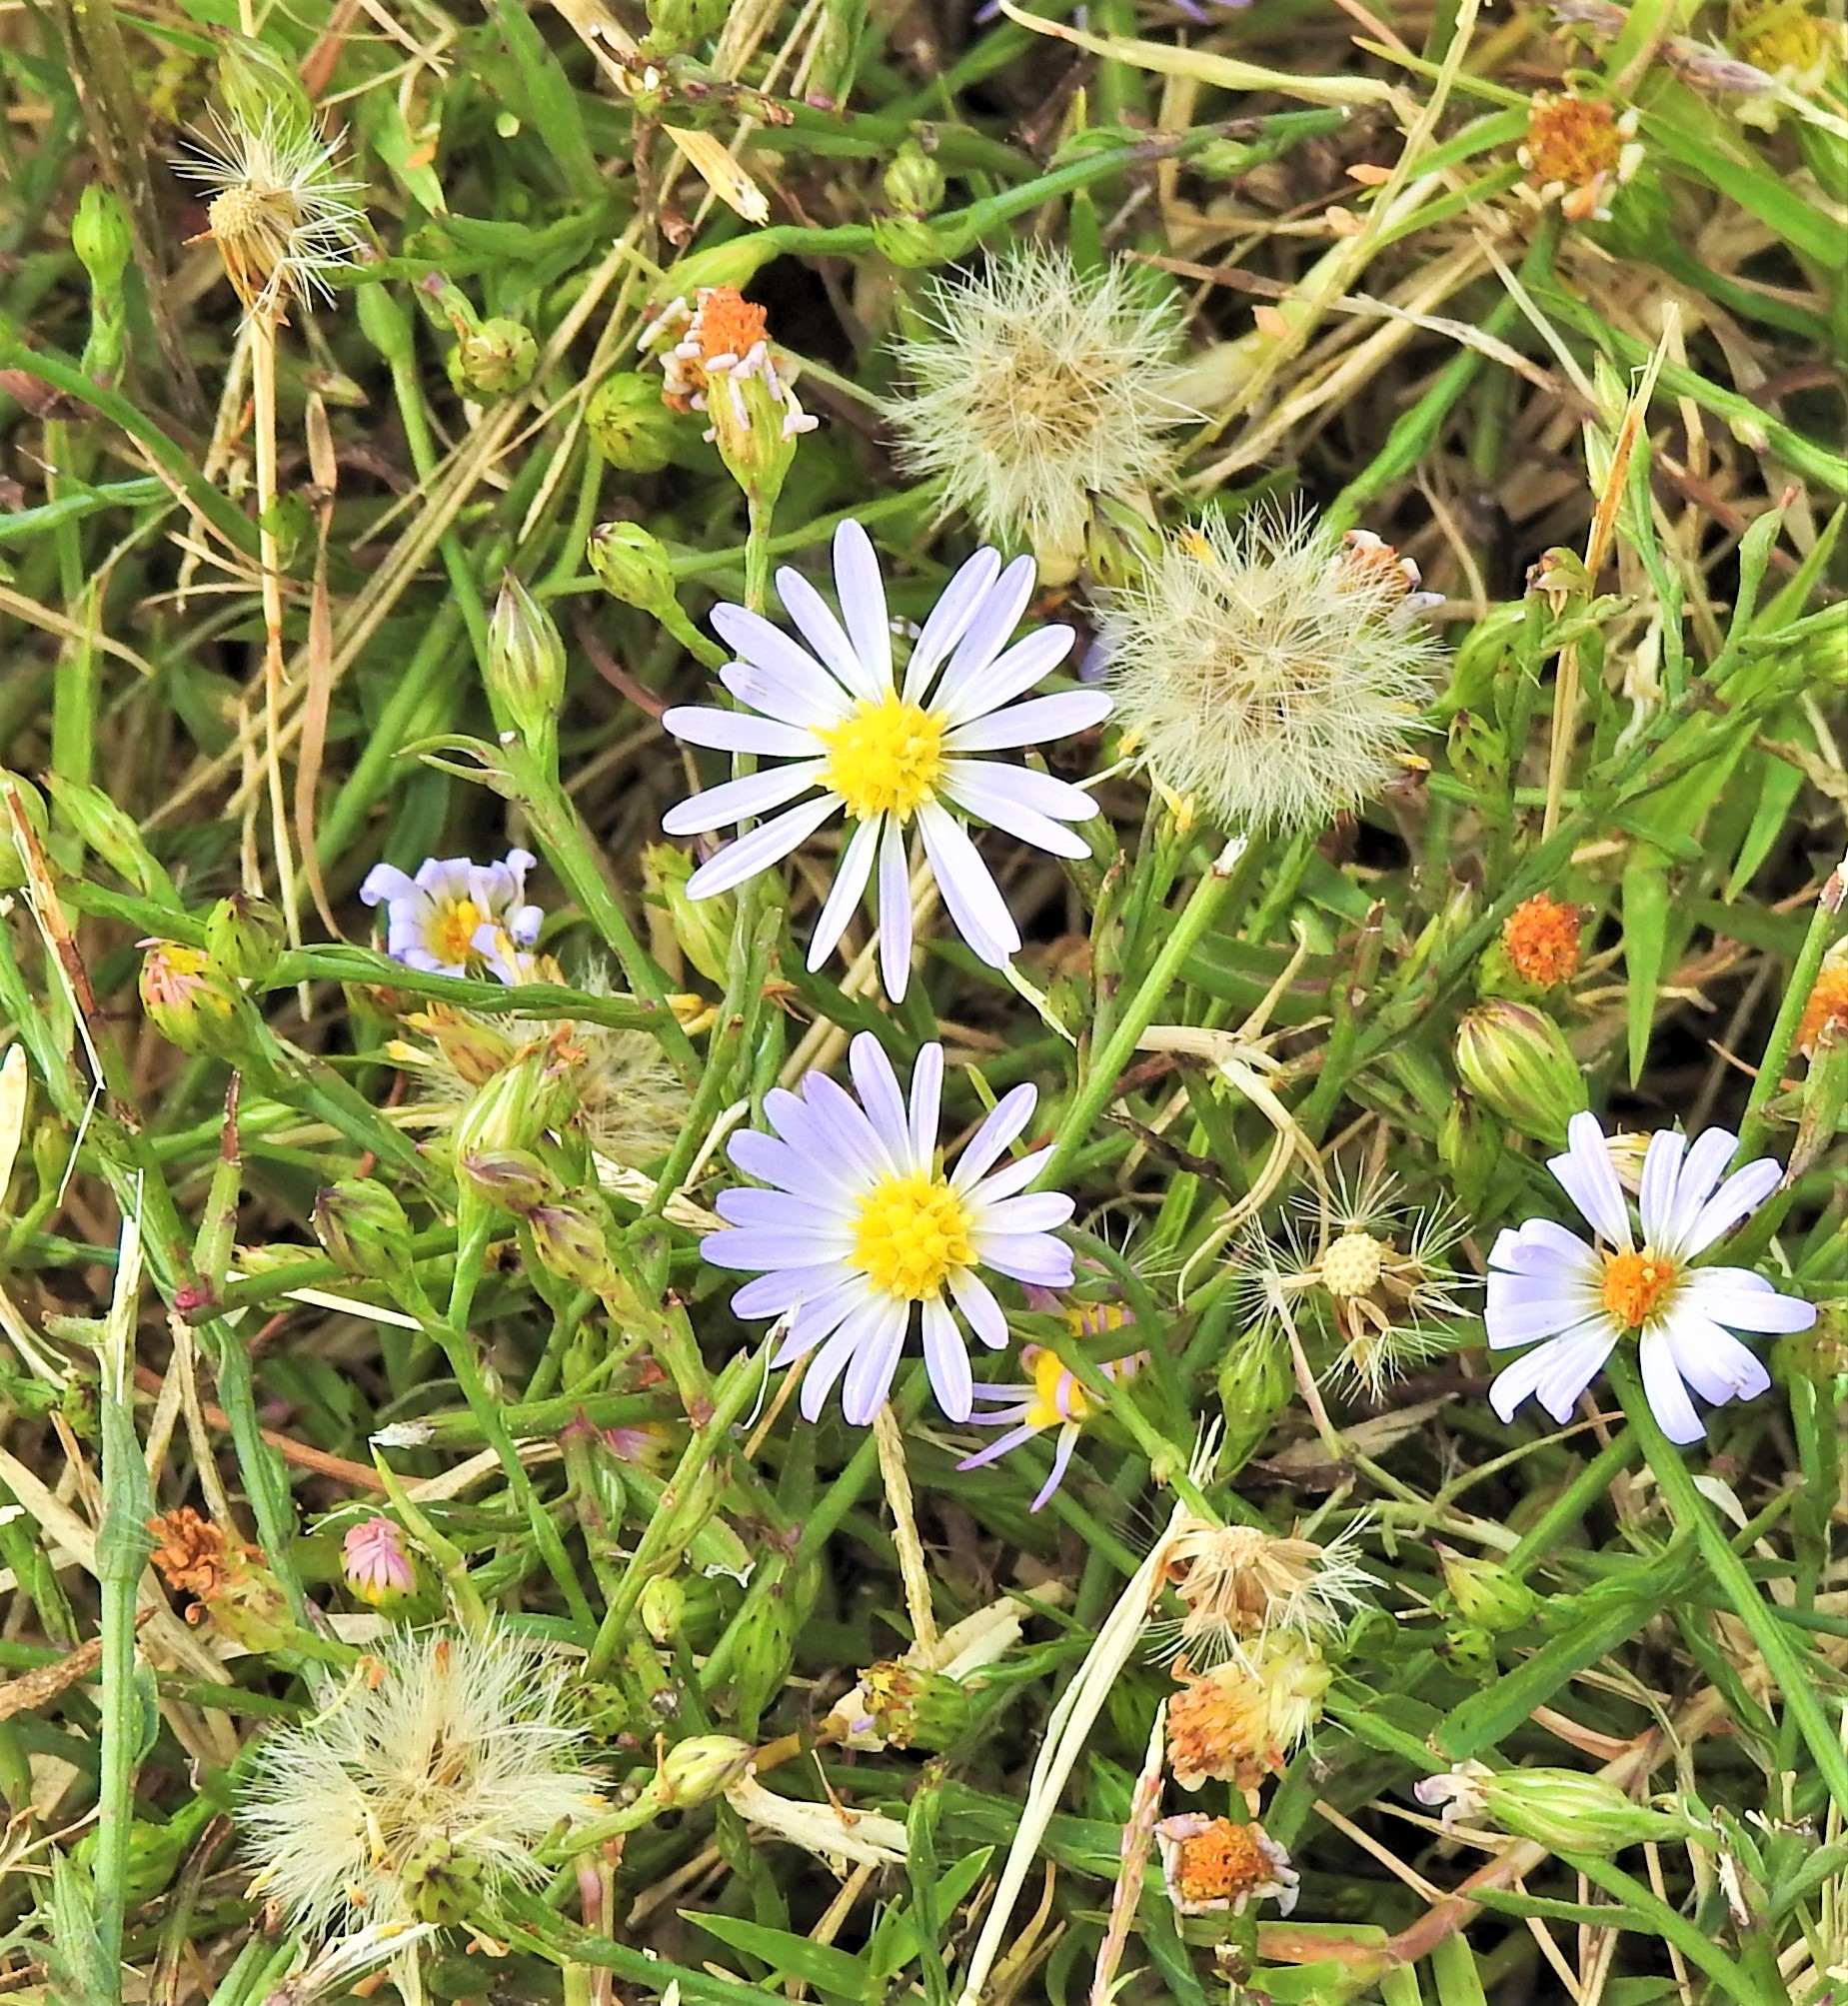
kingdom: Plantae
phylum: Tracheophyta
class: Magnoliopsida
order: Asterales
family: Asteraceae
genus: Symphyotrichum
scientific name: Symphyotrichum divaricatum
